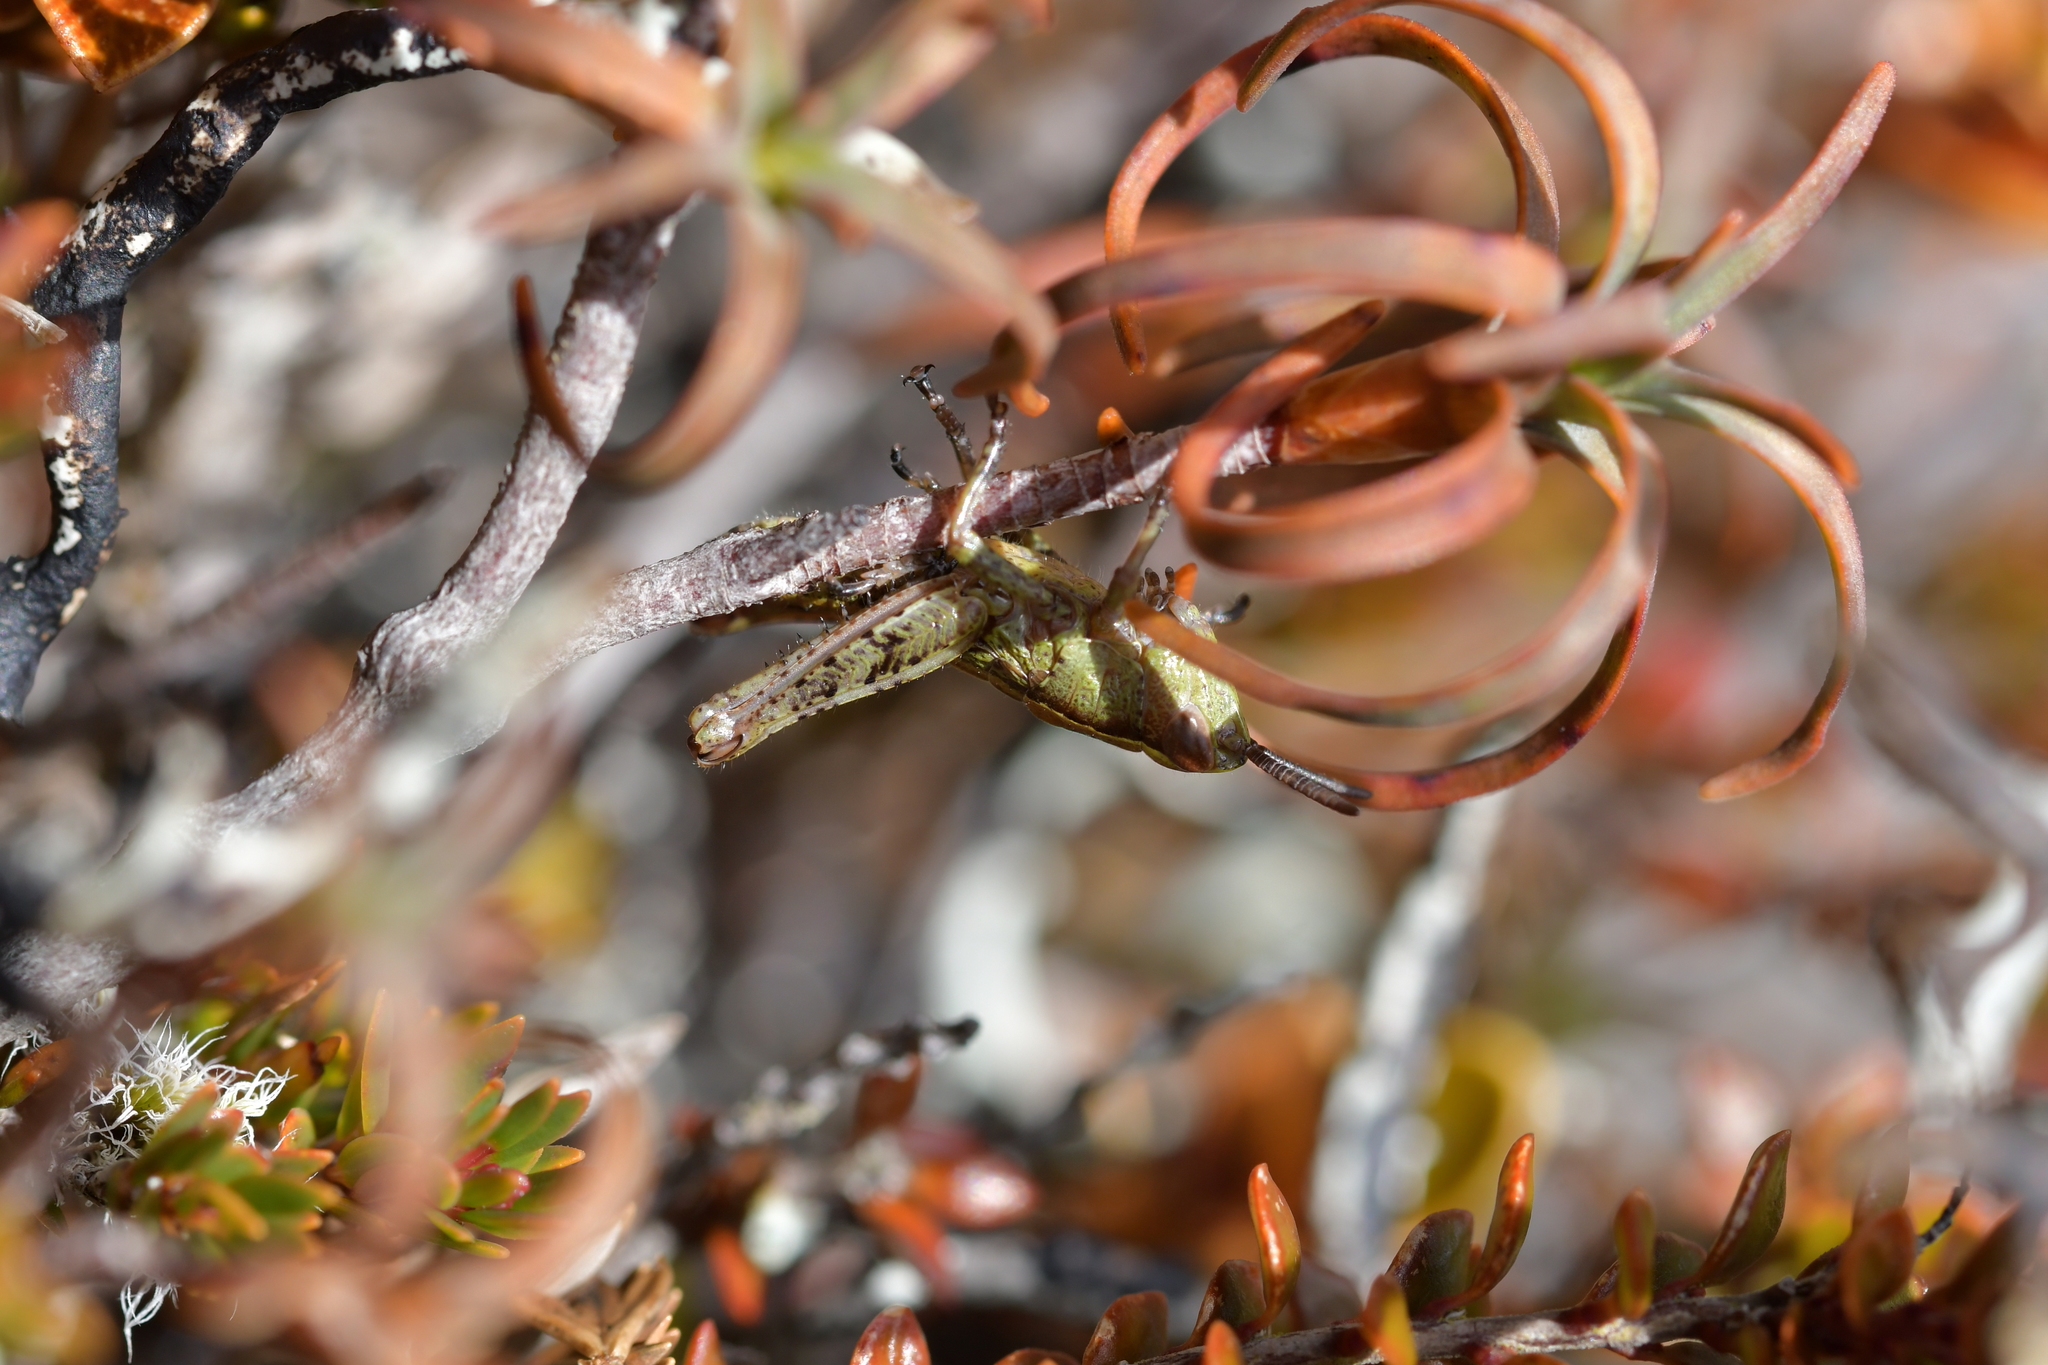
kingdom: Animalia
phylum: Arthropoda
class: Insecta
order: Orthoptera
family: Acrididae
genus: Sigaus
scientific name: Sigaus piliferus
